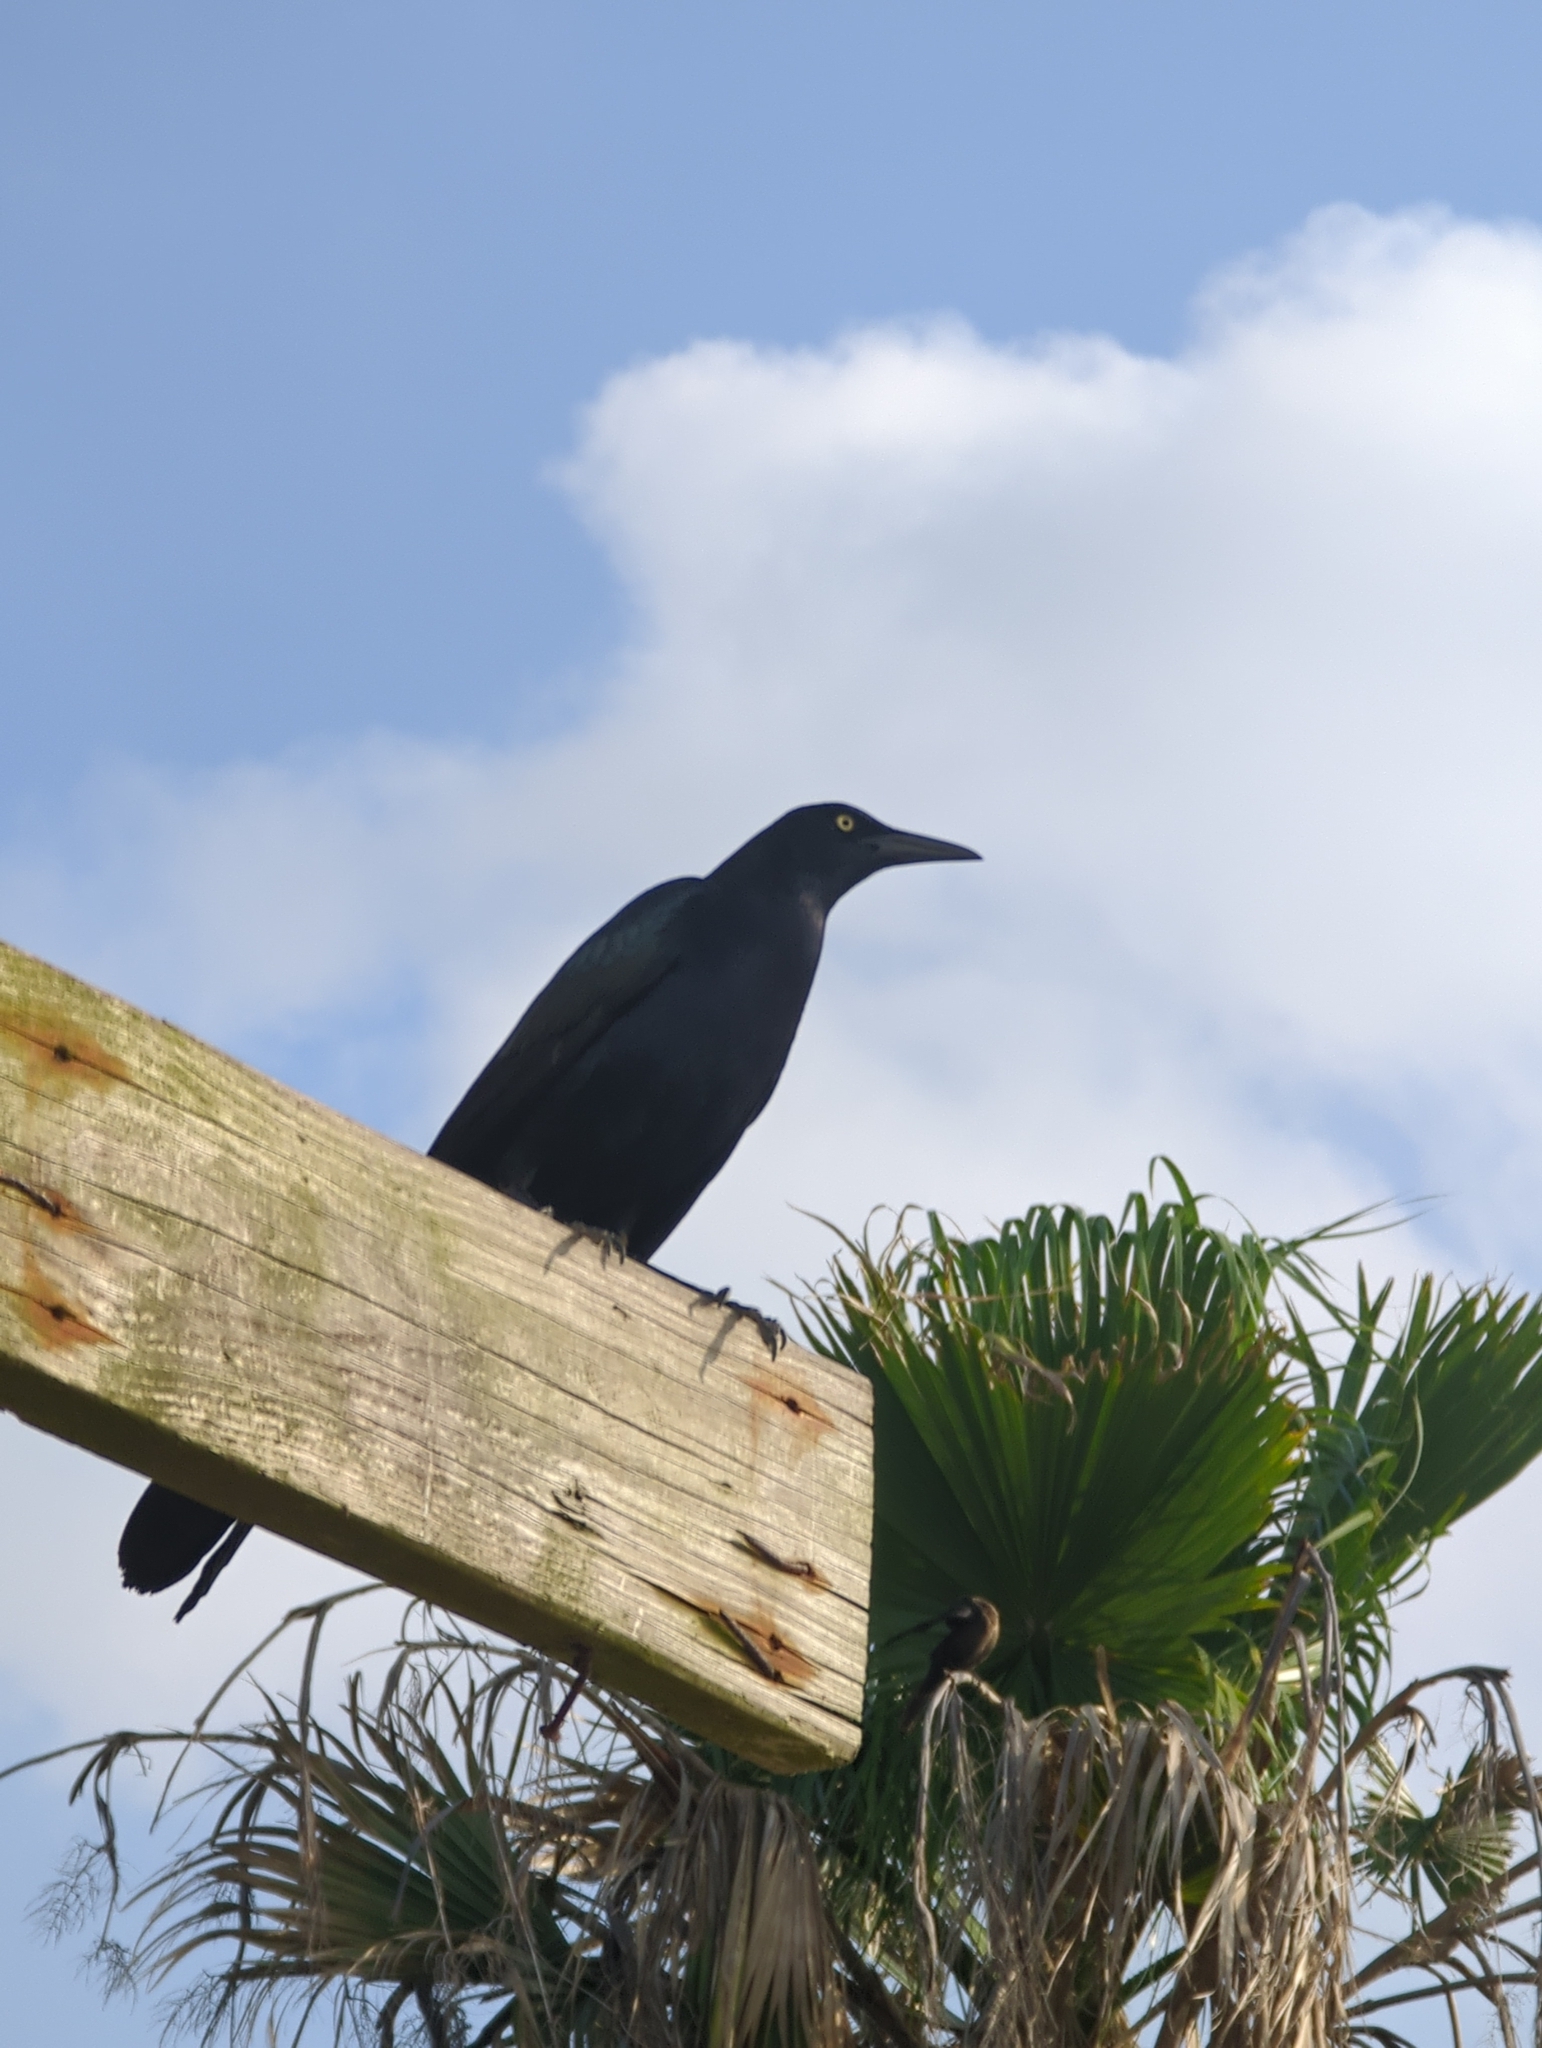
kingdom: Animalia
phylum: Chordata
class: Aves
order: Passeriformes
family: Icteridae
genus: Quiscalus
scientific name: Quiscalus mexicanus
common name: Great-tailed grackle
